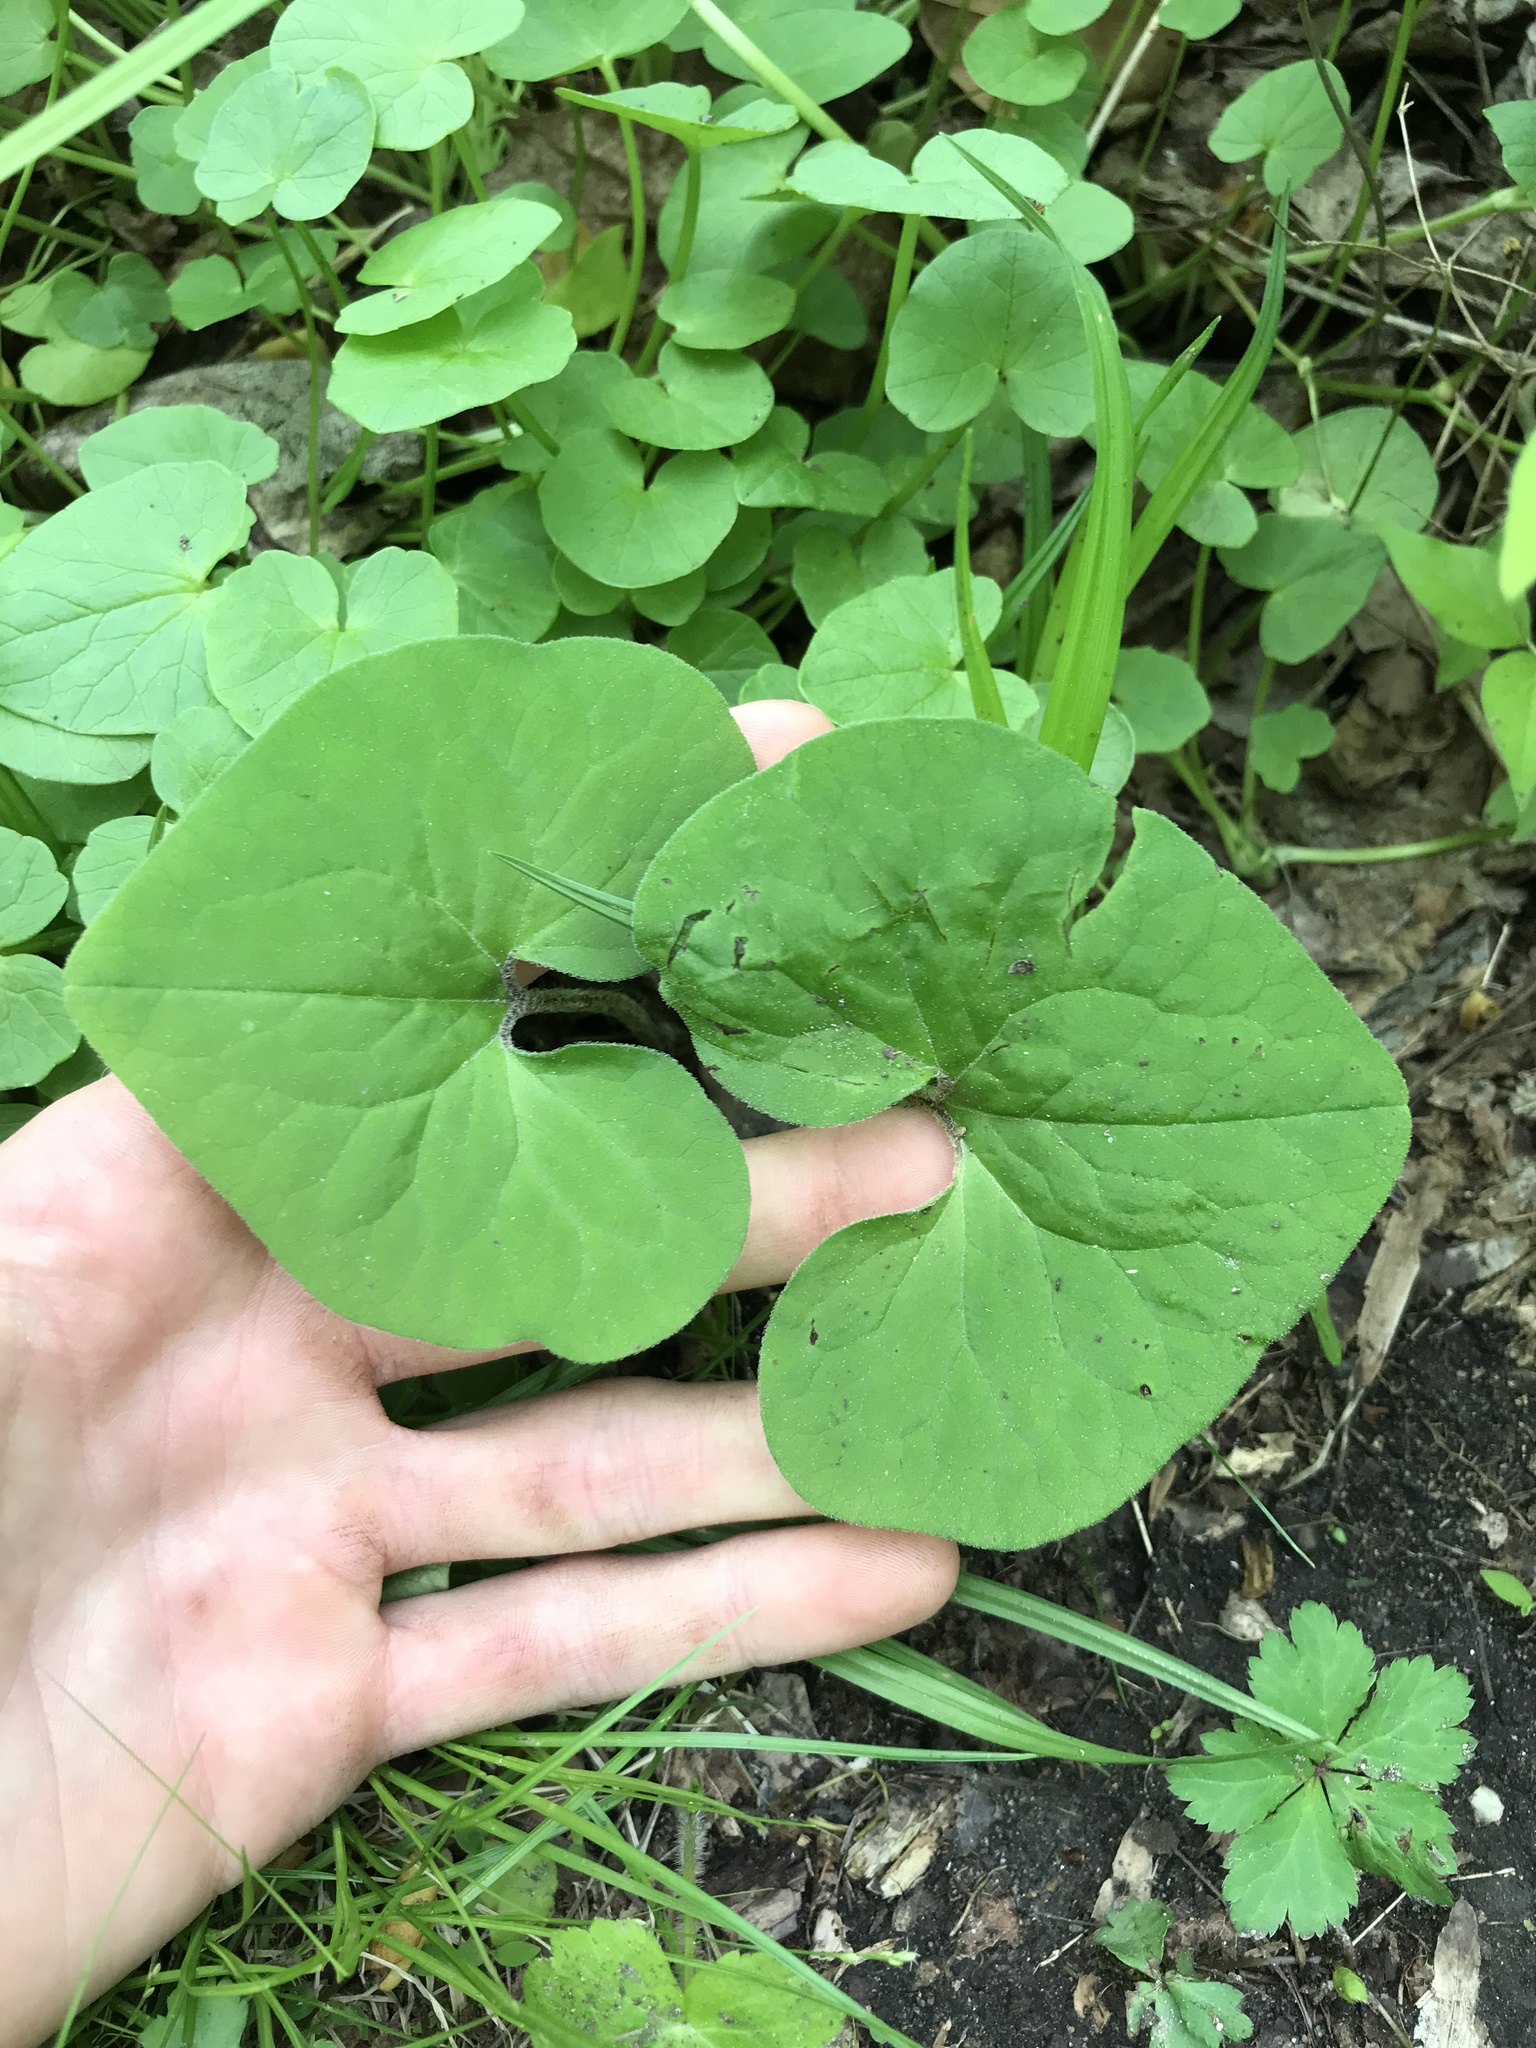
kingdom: Plantae
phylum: Tracheophyta
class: Magnoliopsida
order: Piperales
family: Aristolochiaceae
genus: Asarum
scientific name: Asarum canadense
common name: Wild ginger
